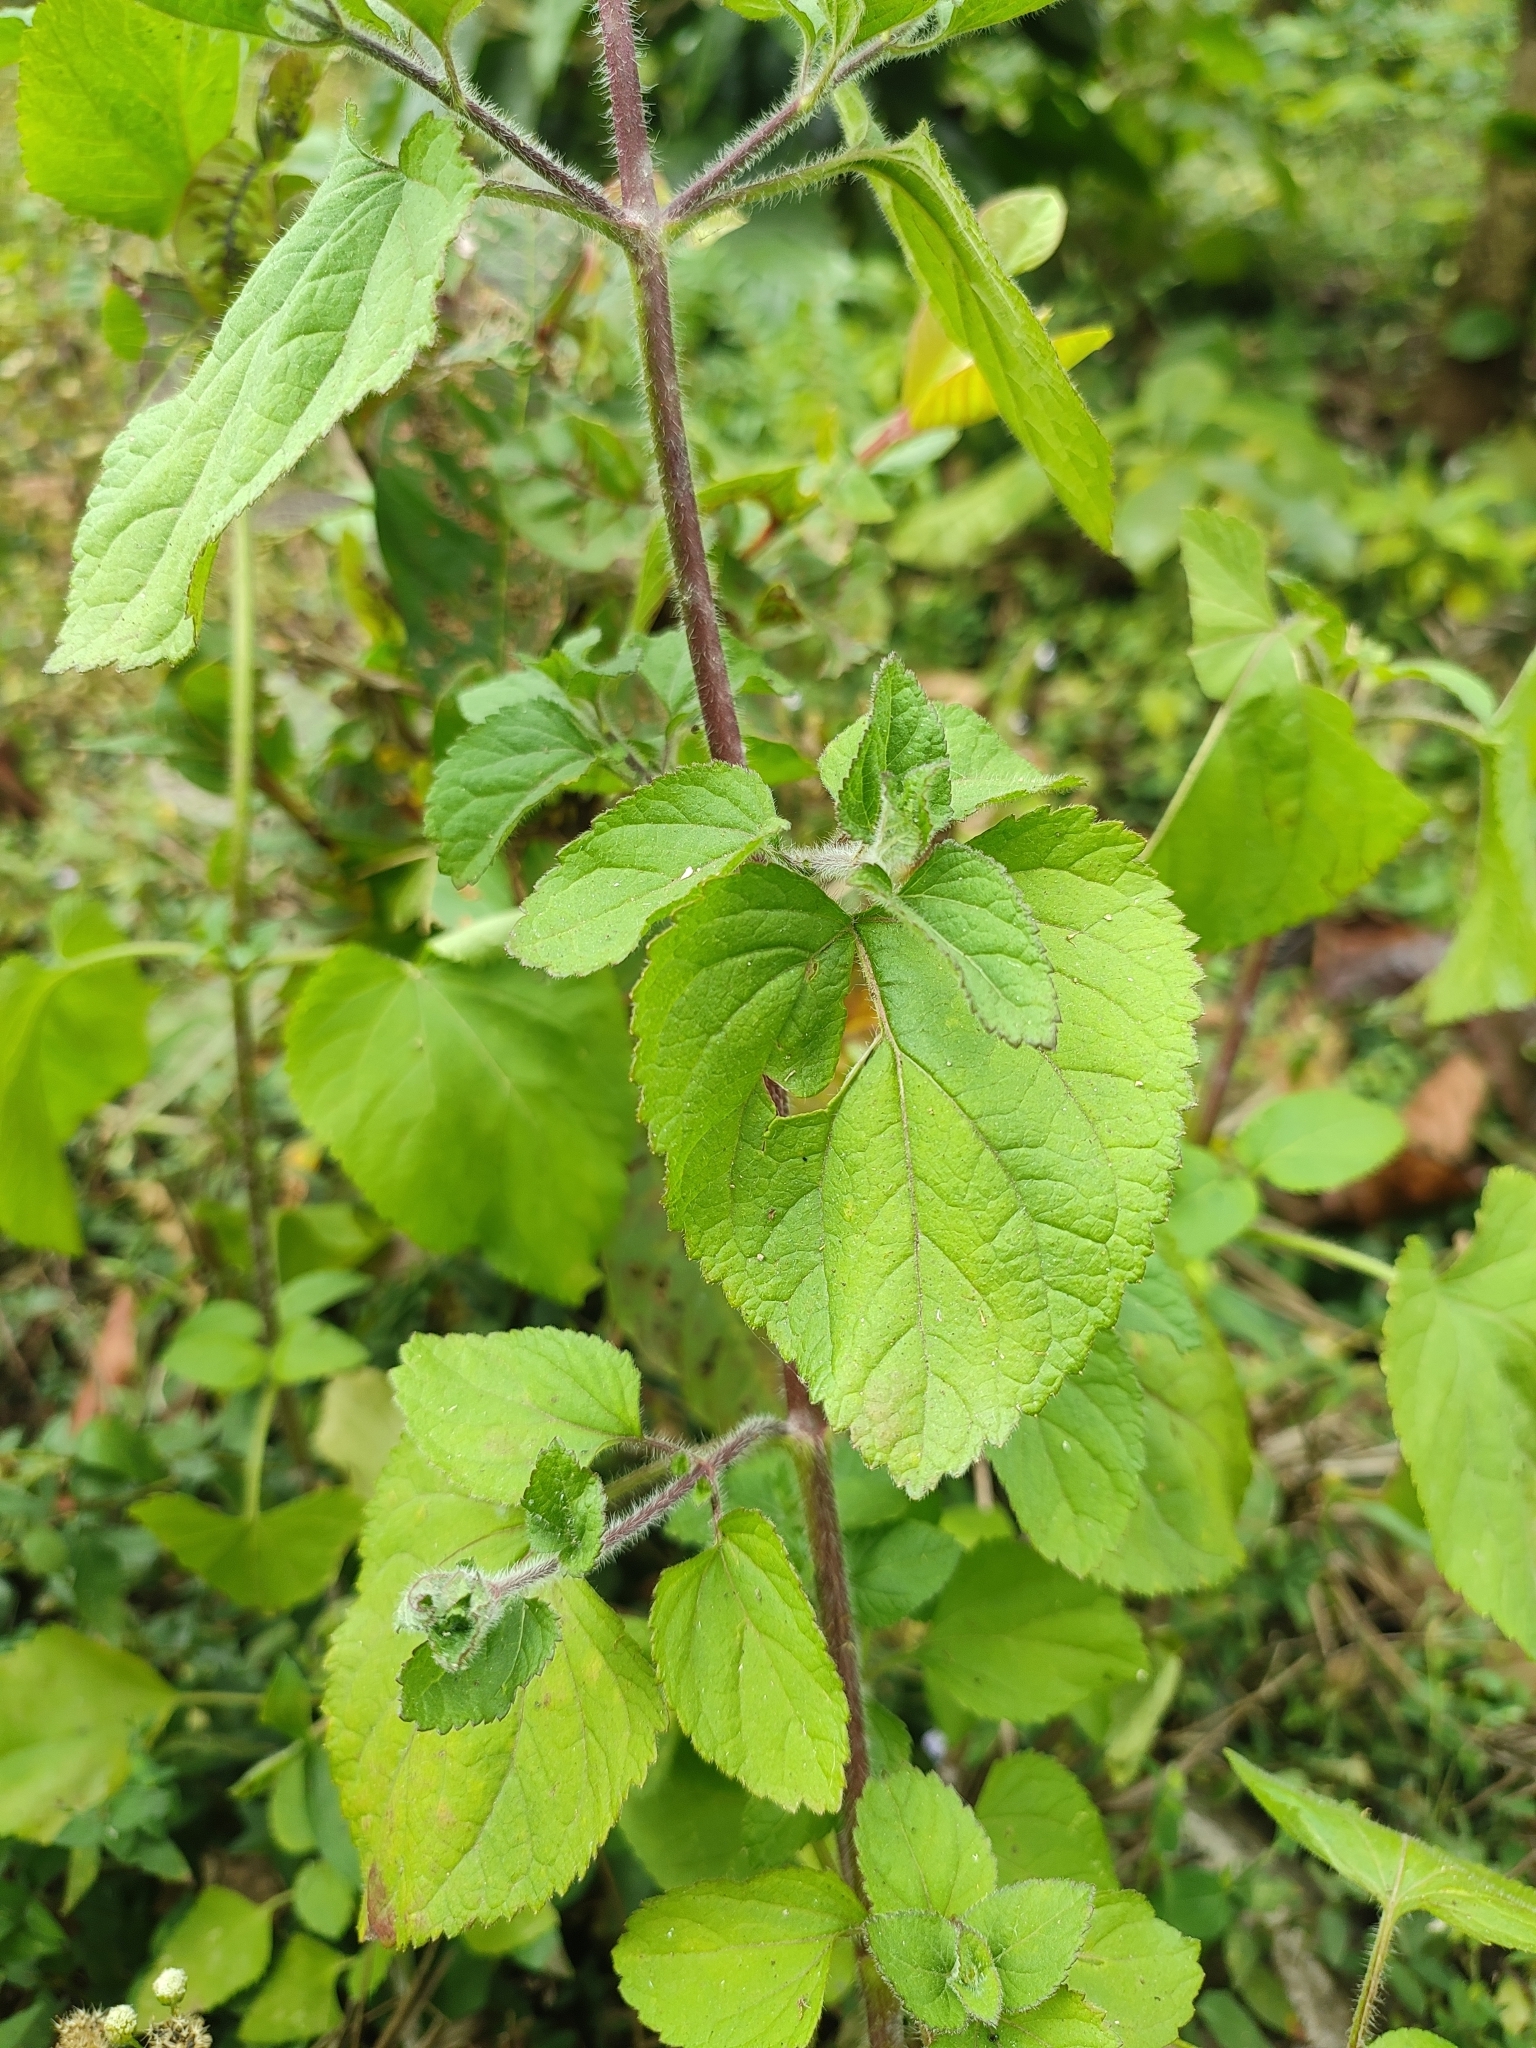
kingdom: Plantae
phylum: Tracheophyta
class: Magnoliopsida
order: Asterales
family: Asteraceae
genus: Ageratum
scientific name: Ageratum houstonianum
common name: Bluemink
